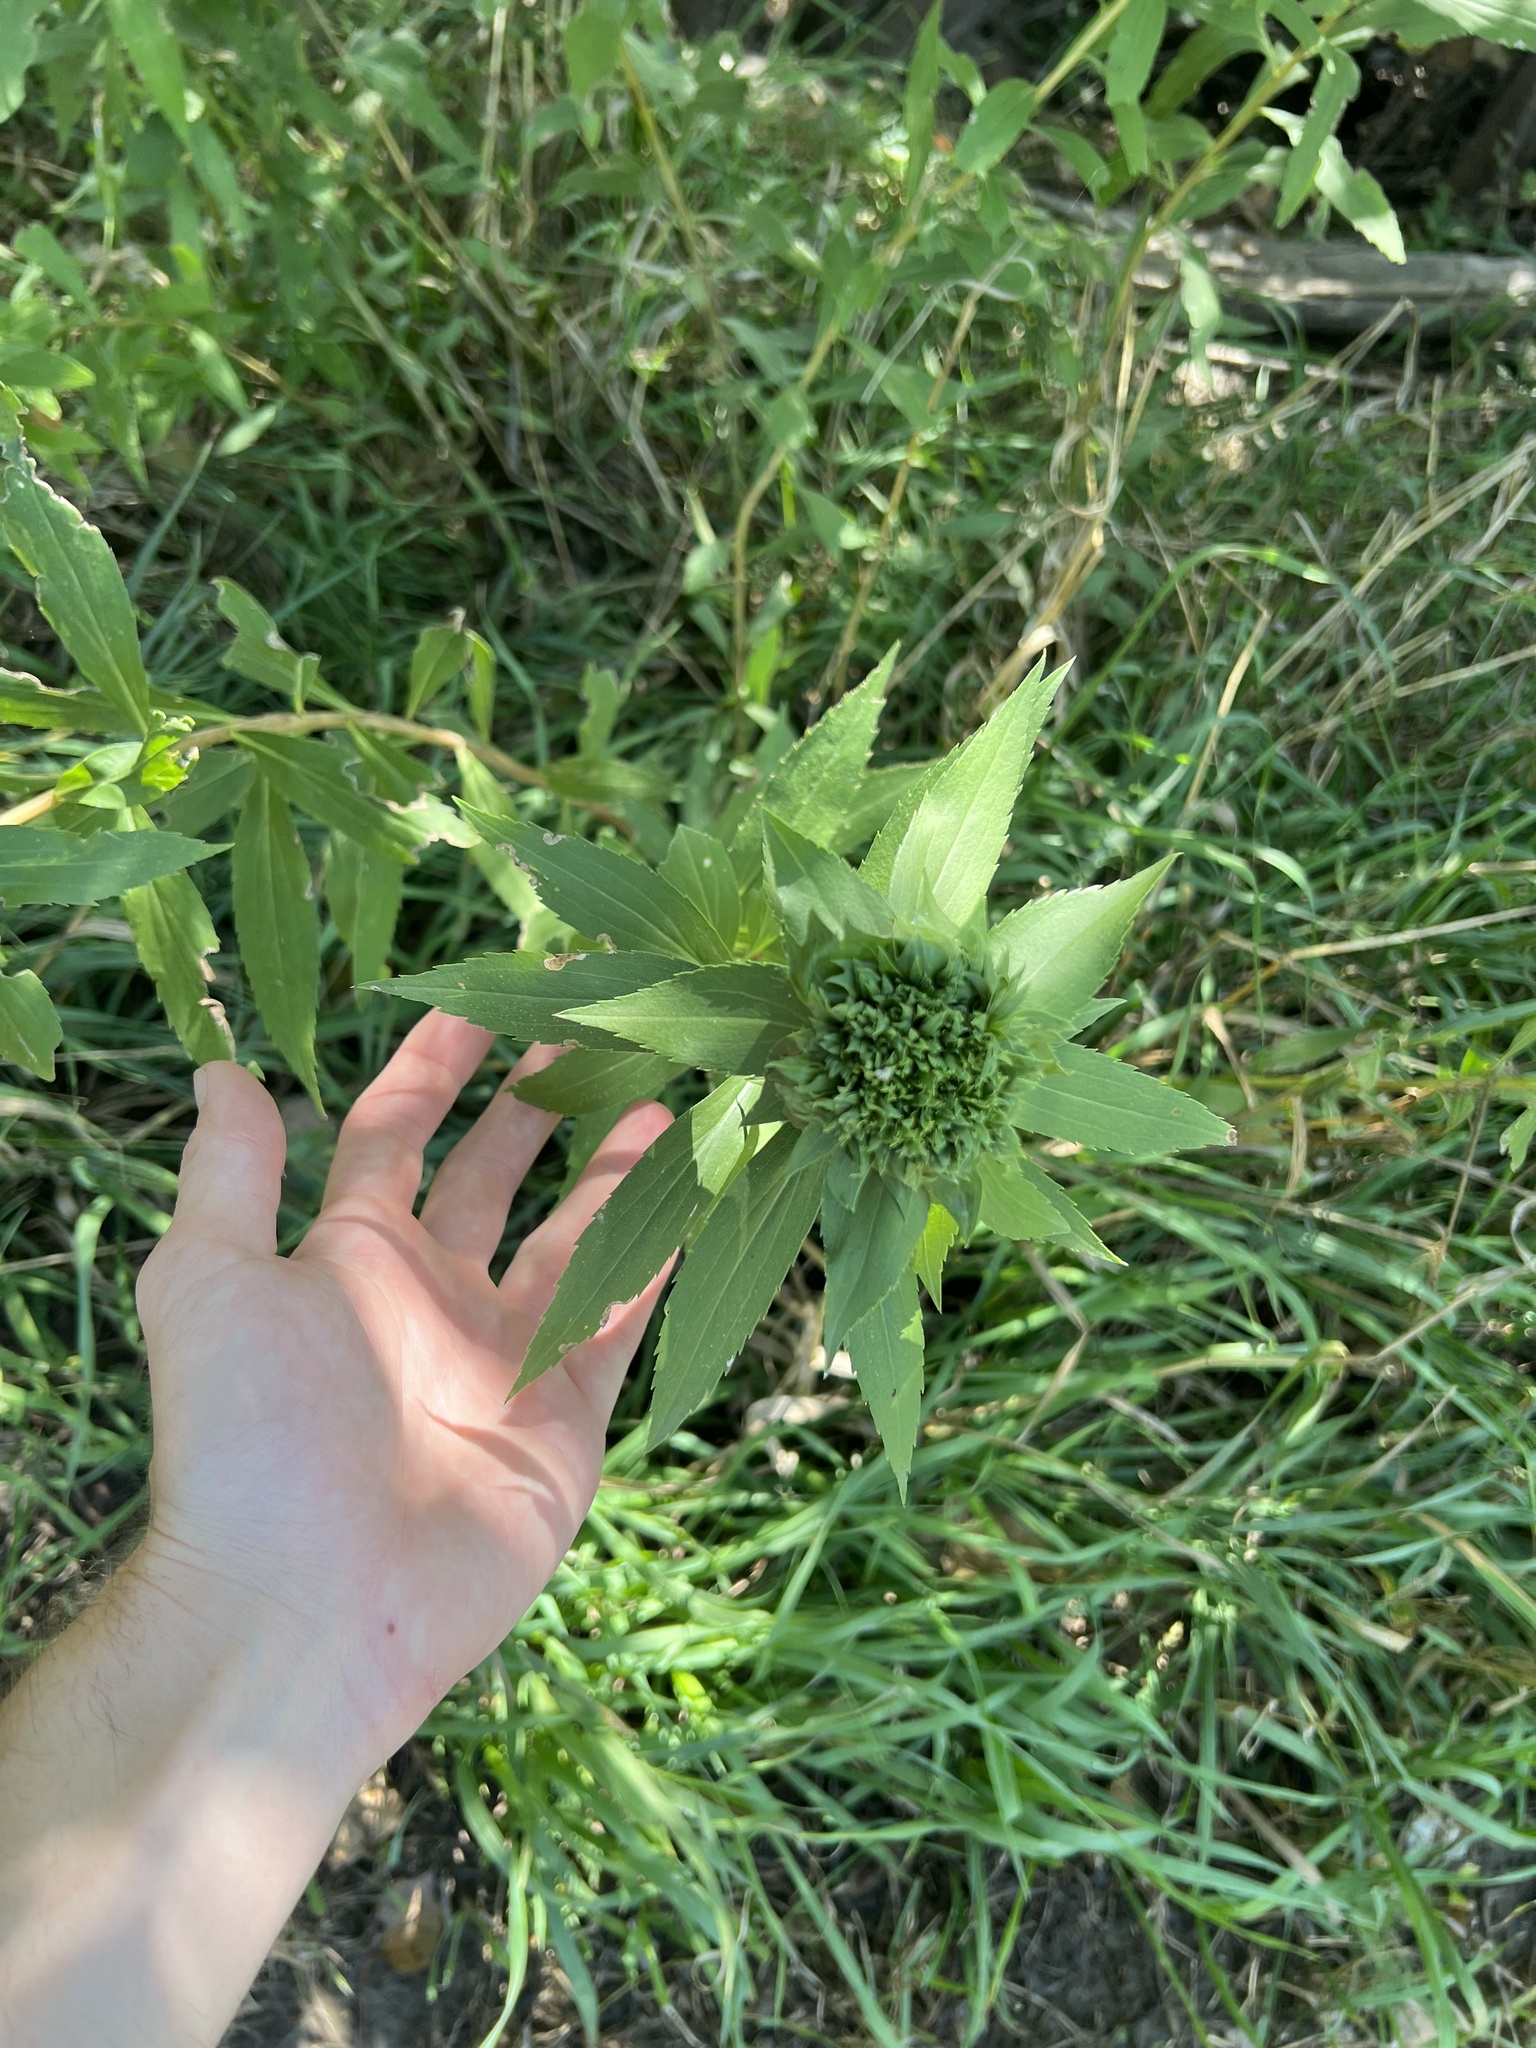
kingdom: Animalia
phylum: Arthropoda
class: Insecta
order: Diptera
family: Cecidomyiidae
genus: Rhopalomyia
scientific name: Rhopalomyia capitata
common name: Giant goldenrod bunch gall midge
